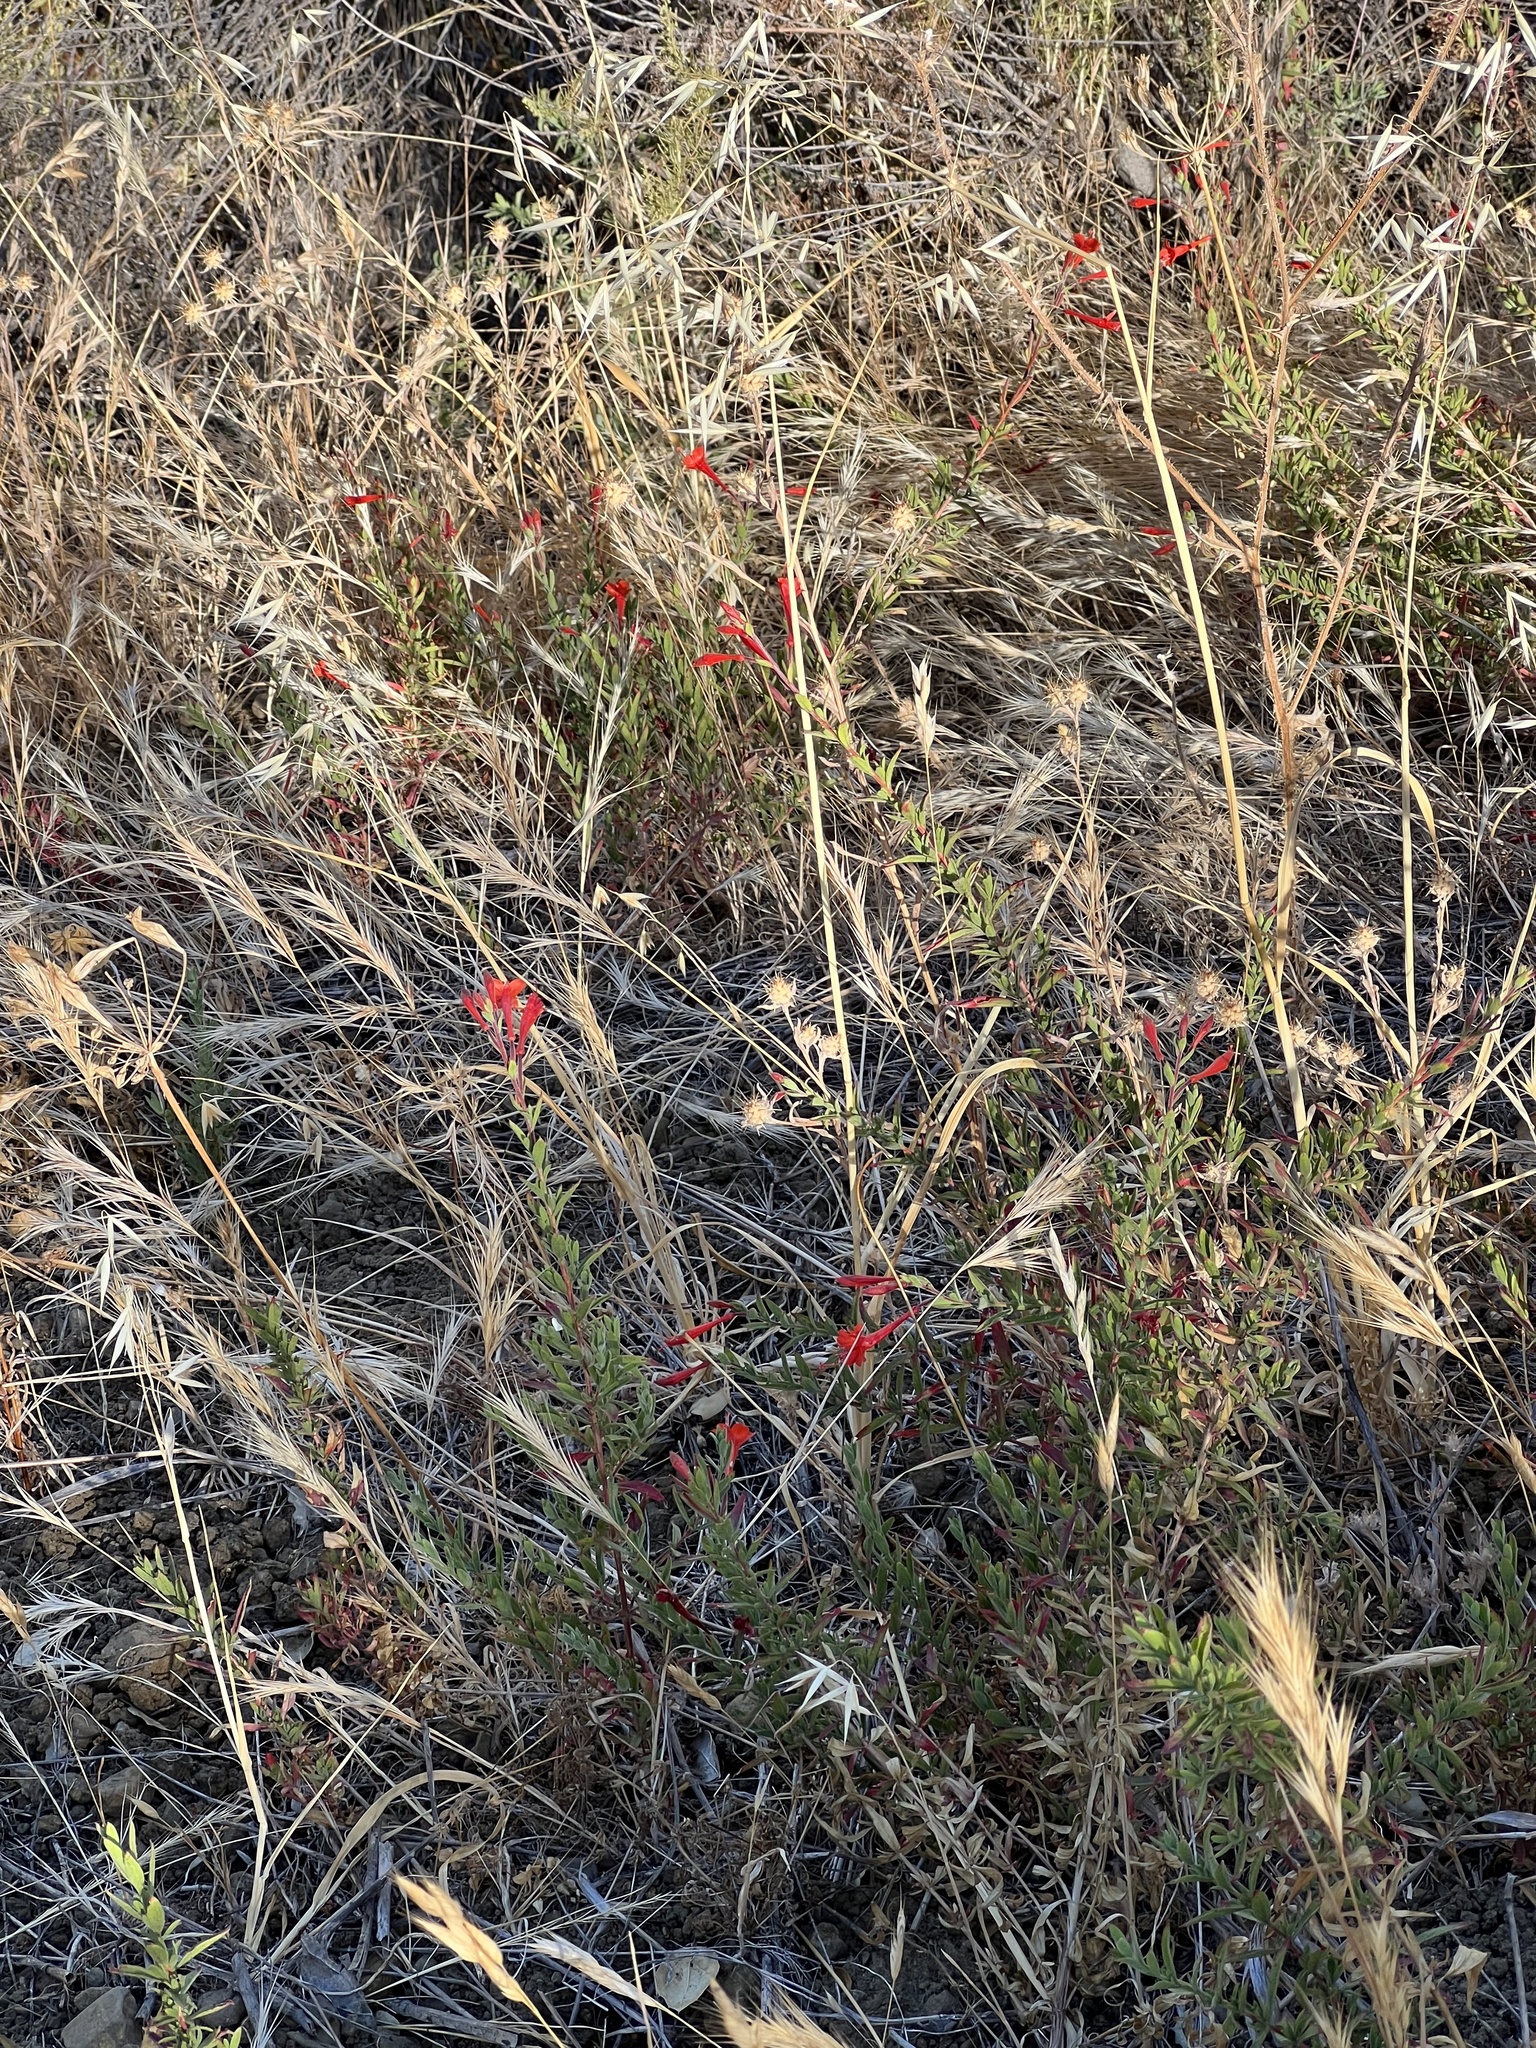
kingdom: Plantae
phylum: Tracheophyta
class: Magnoliopsida
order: Myrtales
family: Onagraceae
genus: Epilobium
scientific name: Epilobium canum
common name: California-fuchsia
